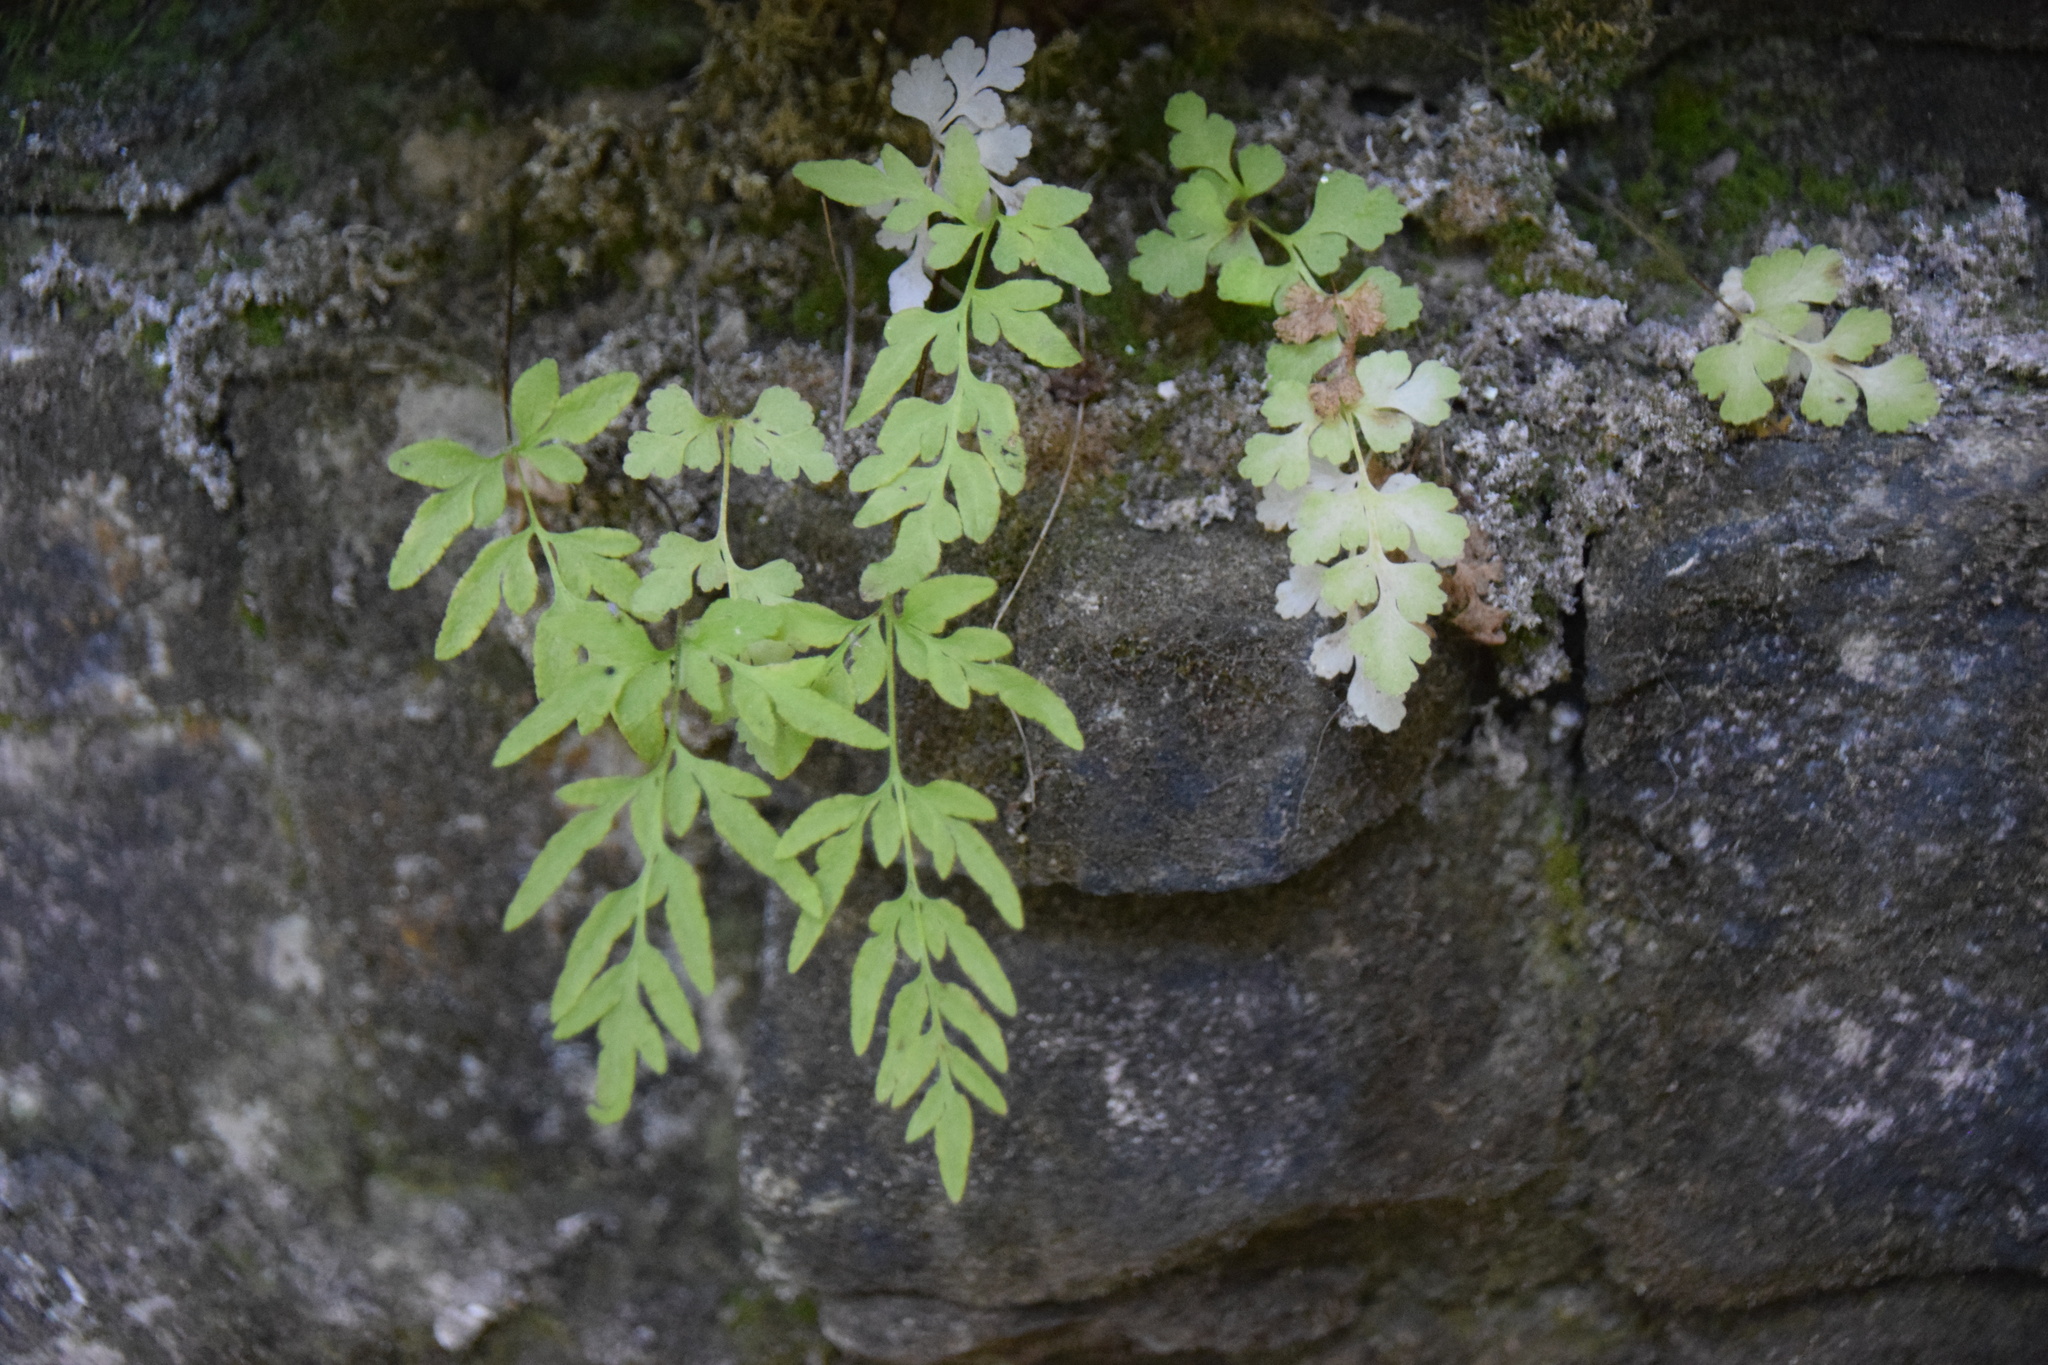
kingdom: Plantae
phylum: Tracheophyta
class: Polypodiopsida
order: Polypodiales
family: Pteridaceae
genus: Cryptogramma
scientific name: Cryptogramma stelleri
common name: Cliff-brake
